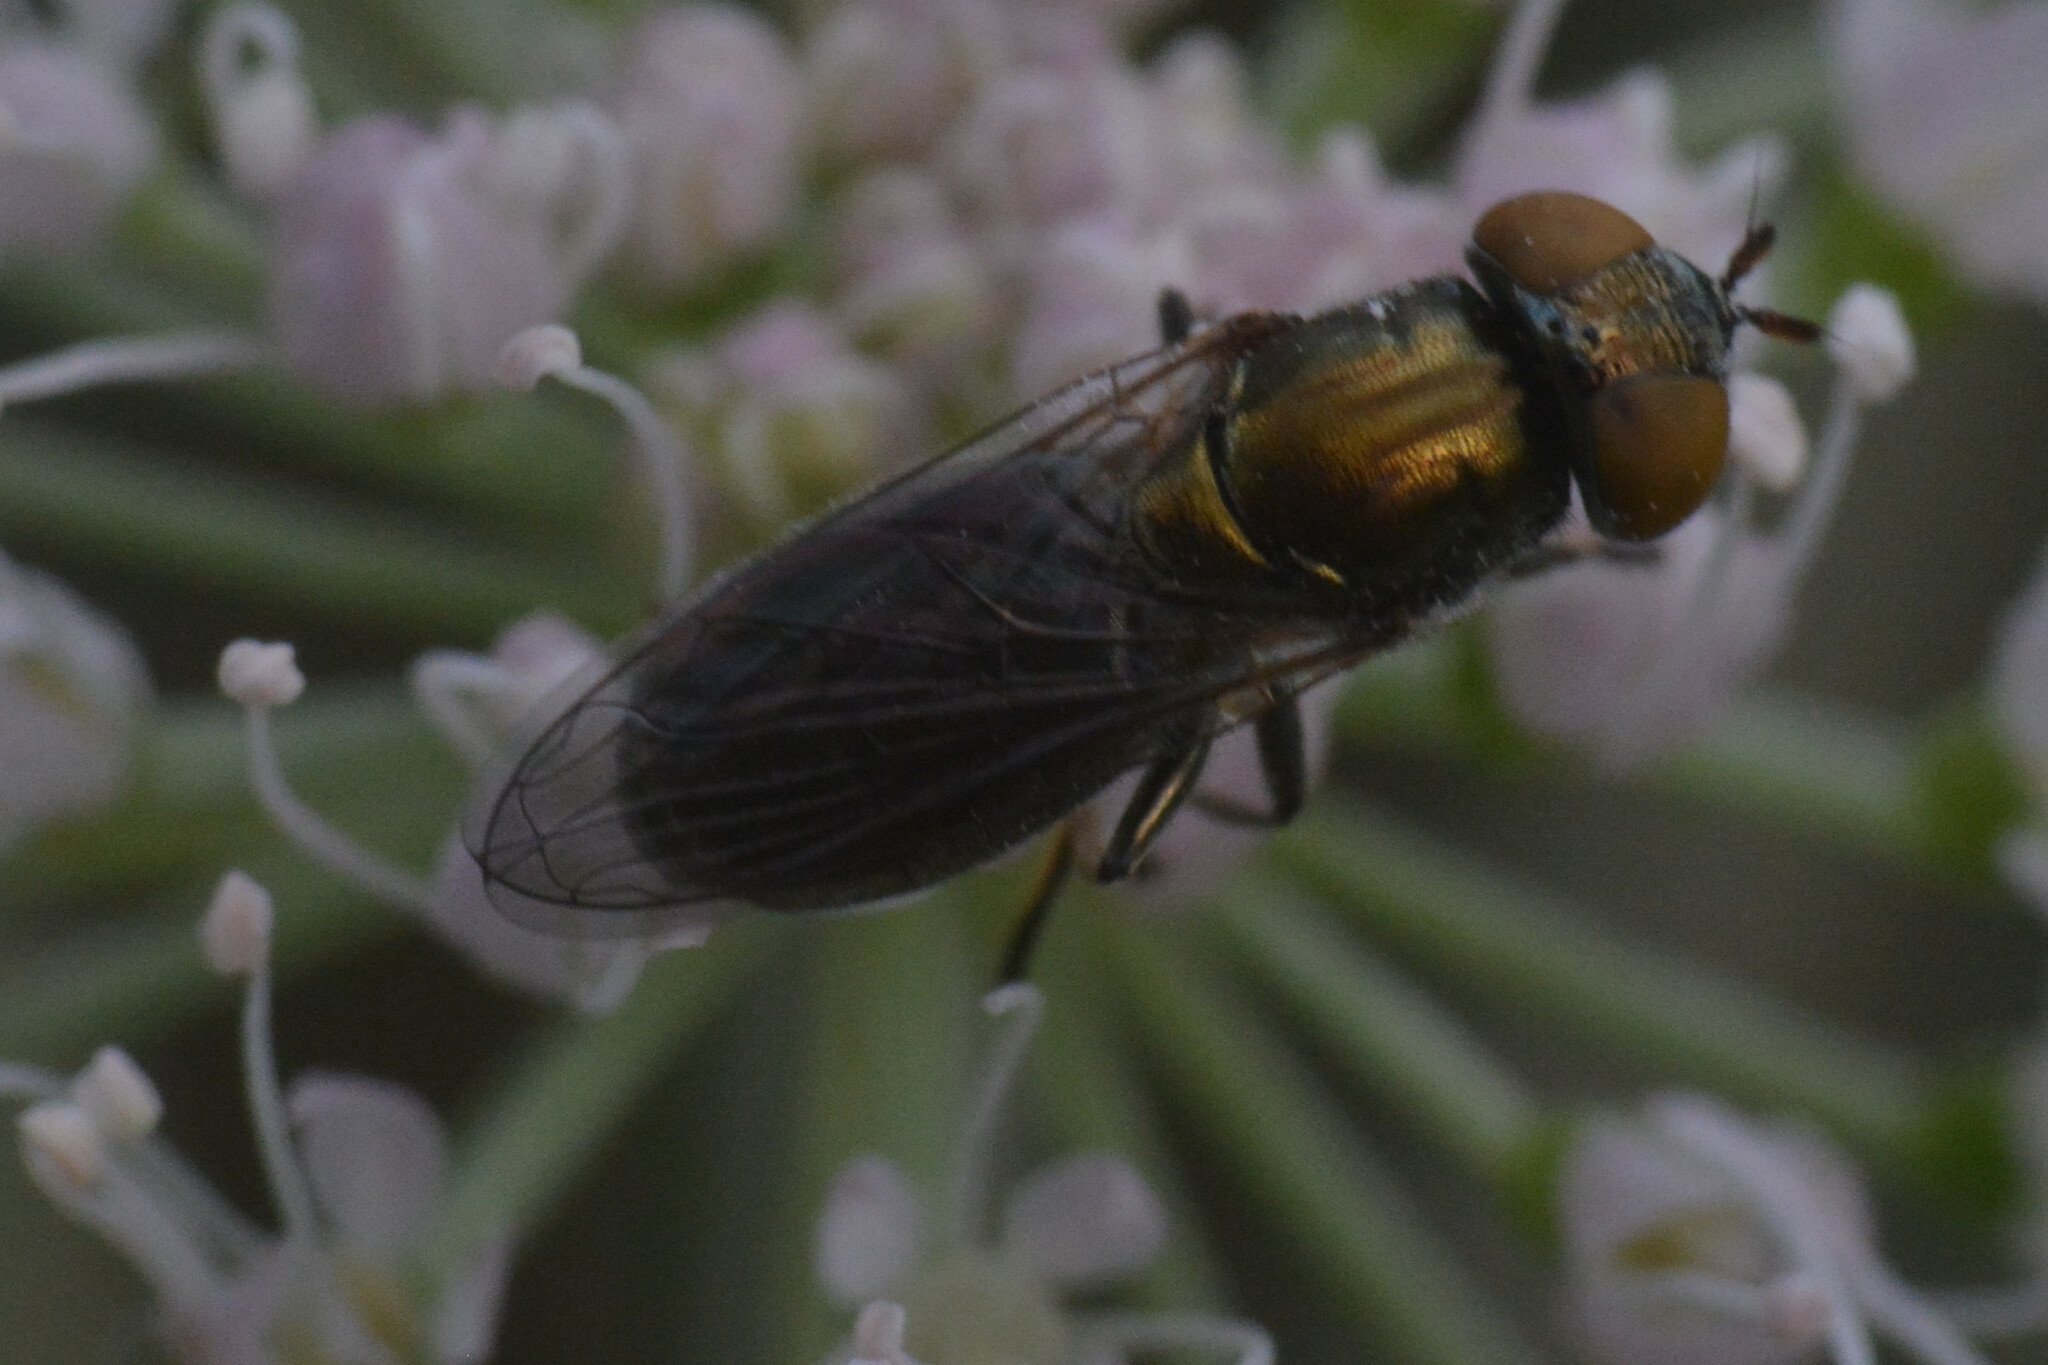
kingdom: Animalia
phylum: Arthropoda
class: Insecta
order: Diptera
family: Syrphidae
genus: Orthonevra
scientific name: Orthonevra splendens
